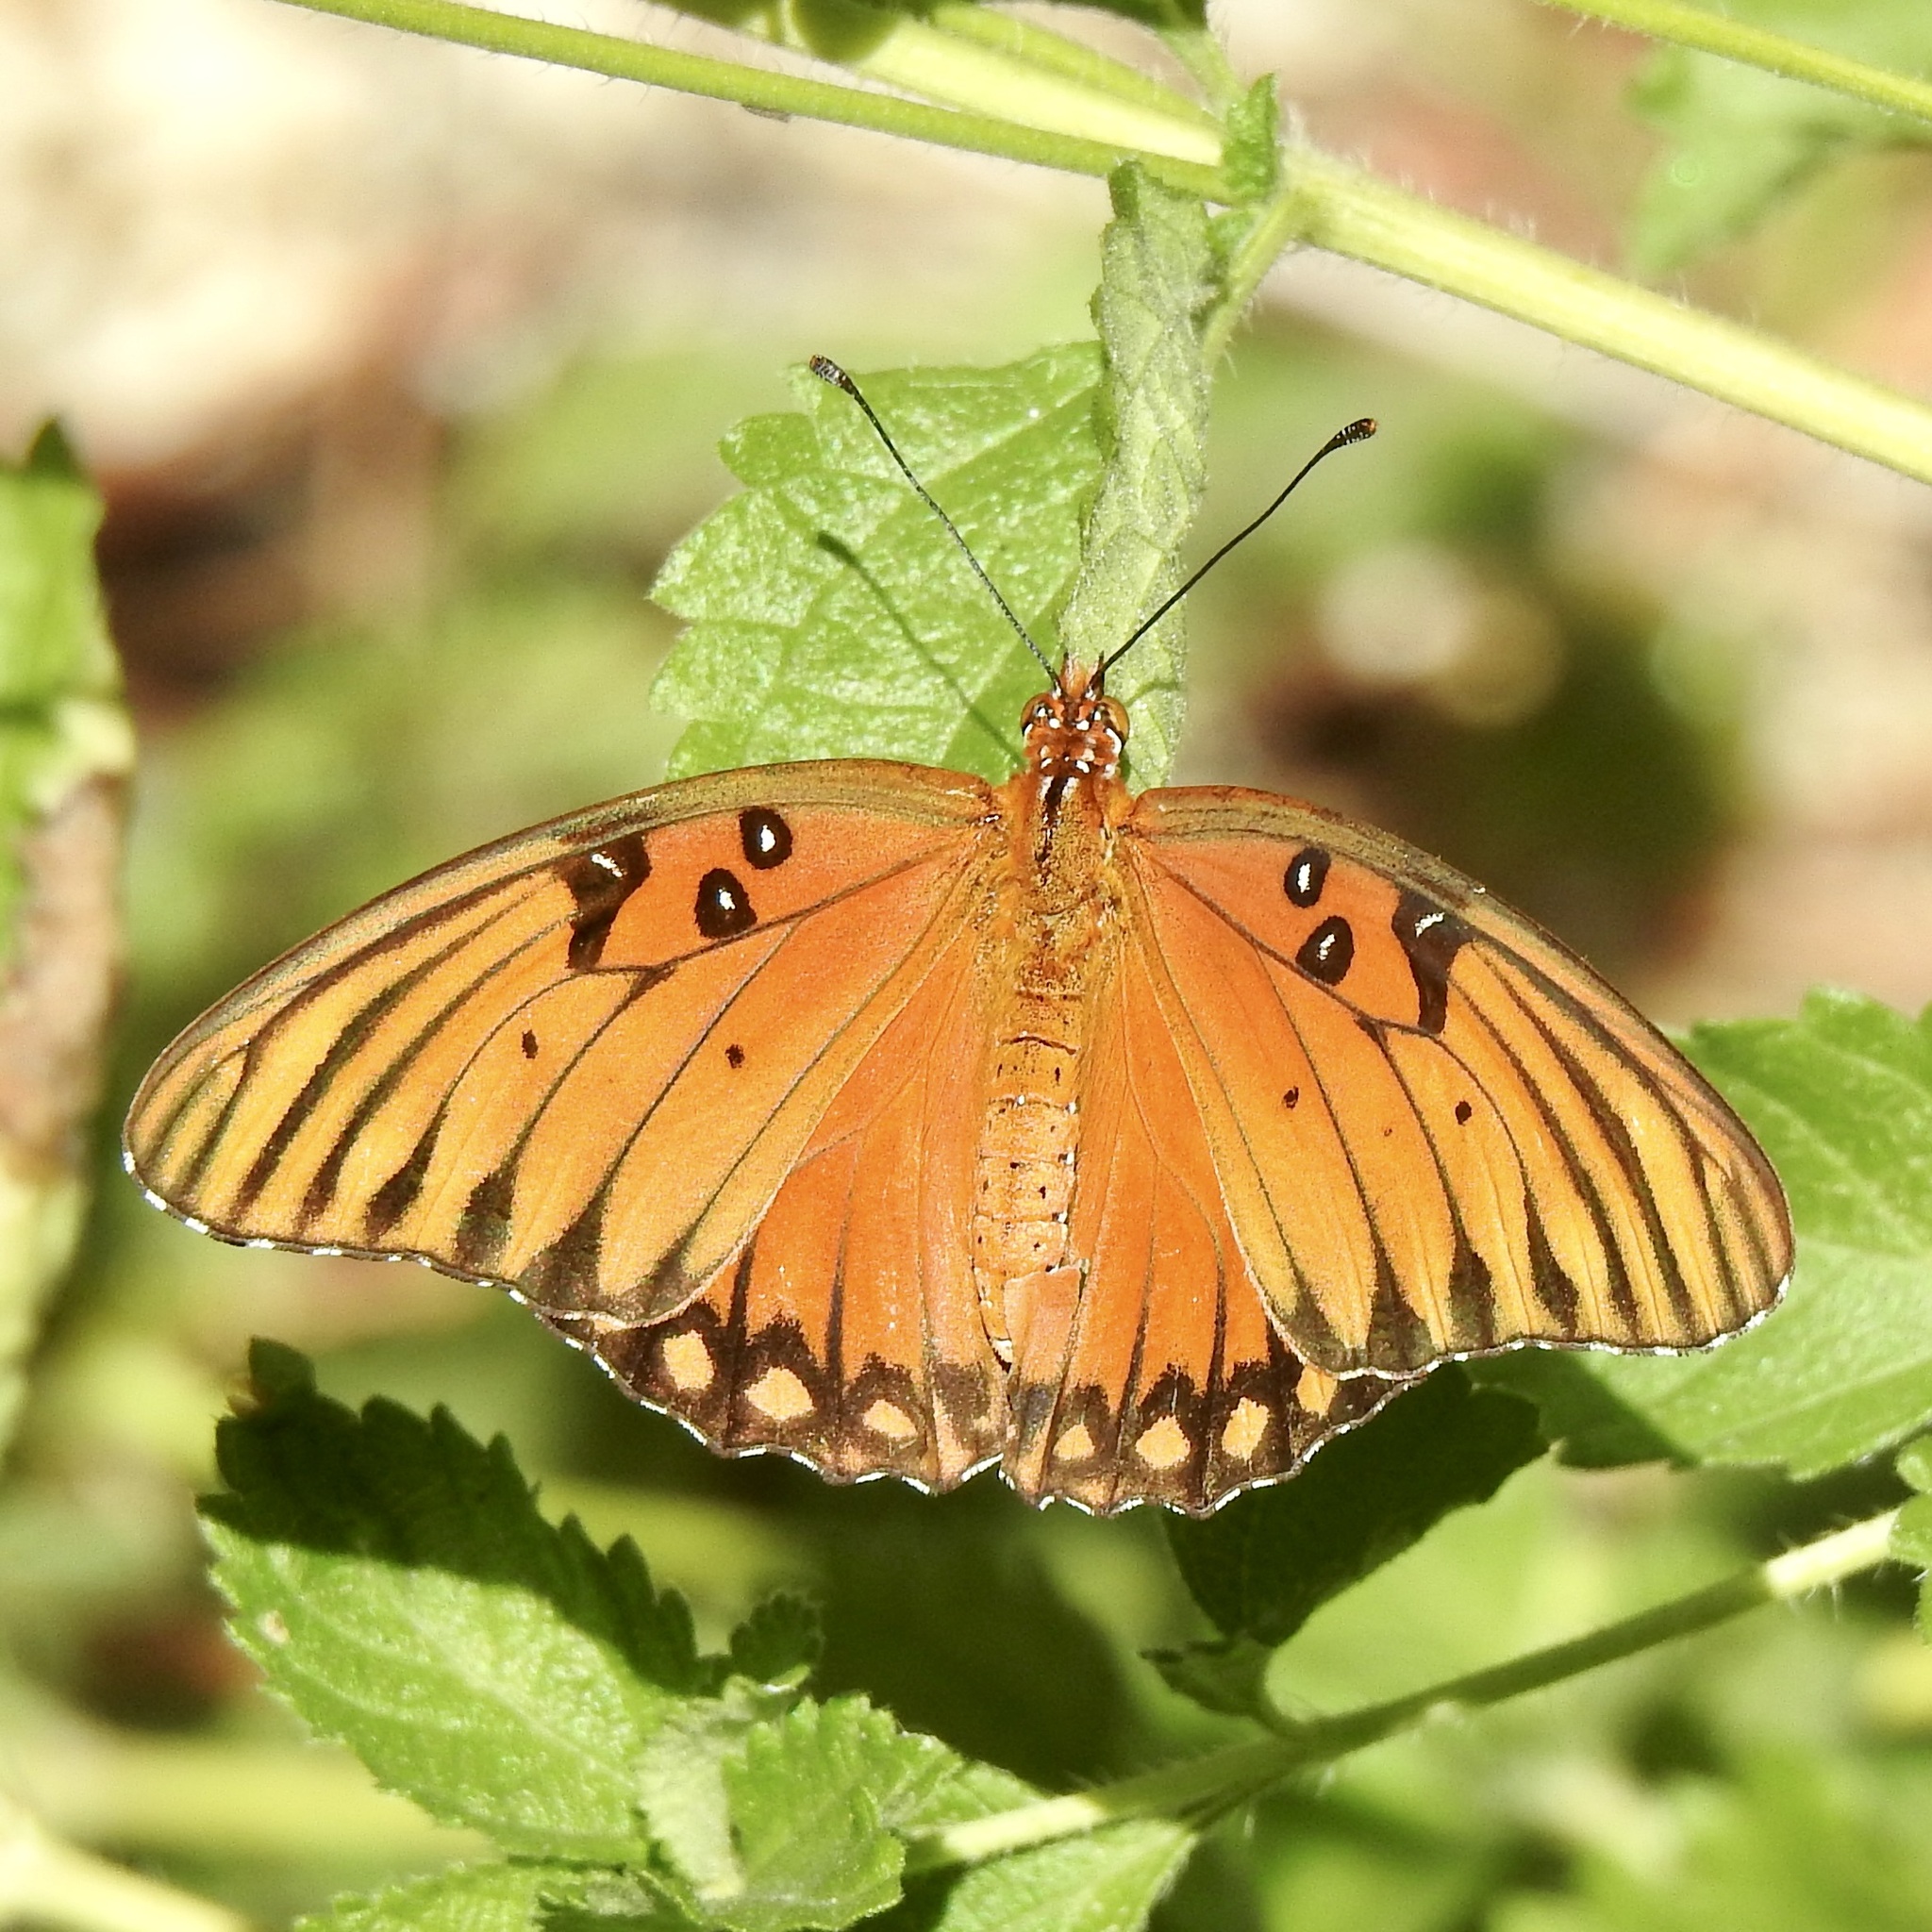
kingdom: Animalia
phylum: Arthropoda
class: Insecta
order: Lepidoptera
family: Nymphalidae
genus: Dione
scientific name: Dione vanillae
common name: Gulf fritillary
